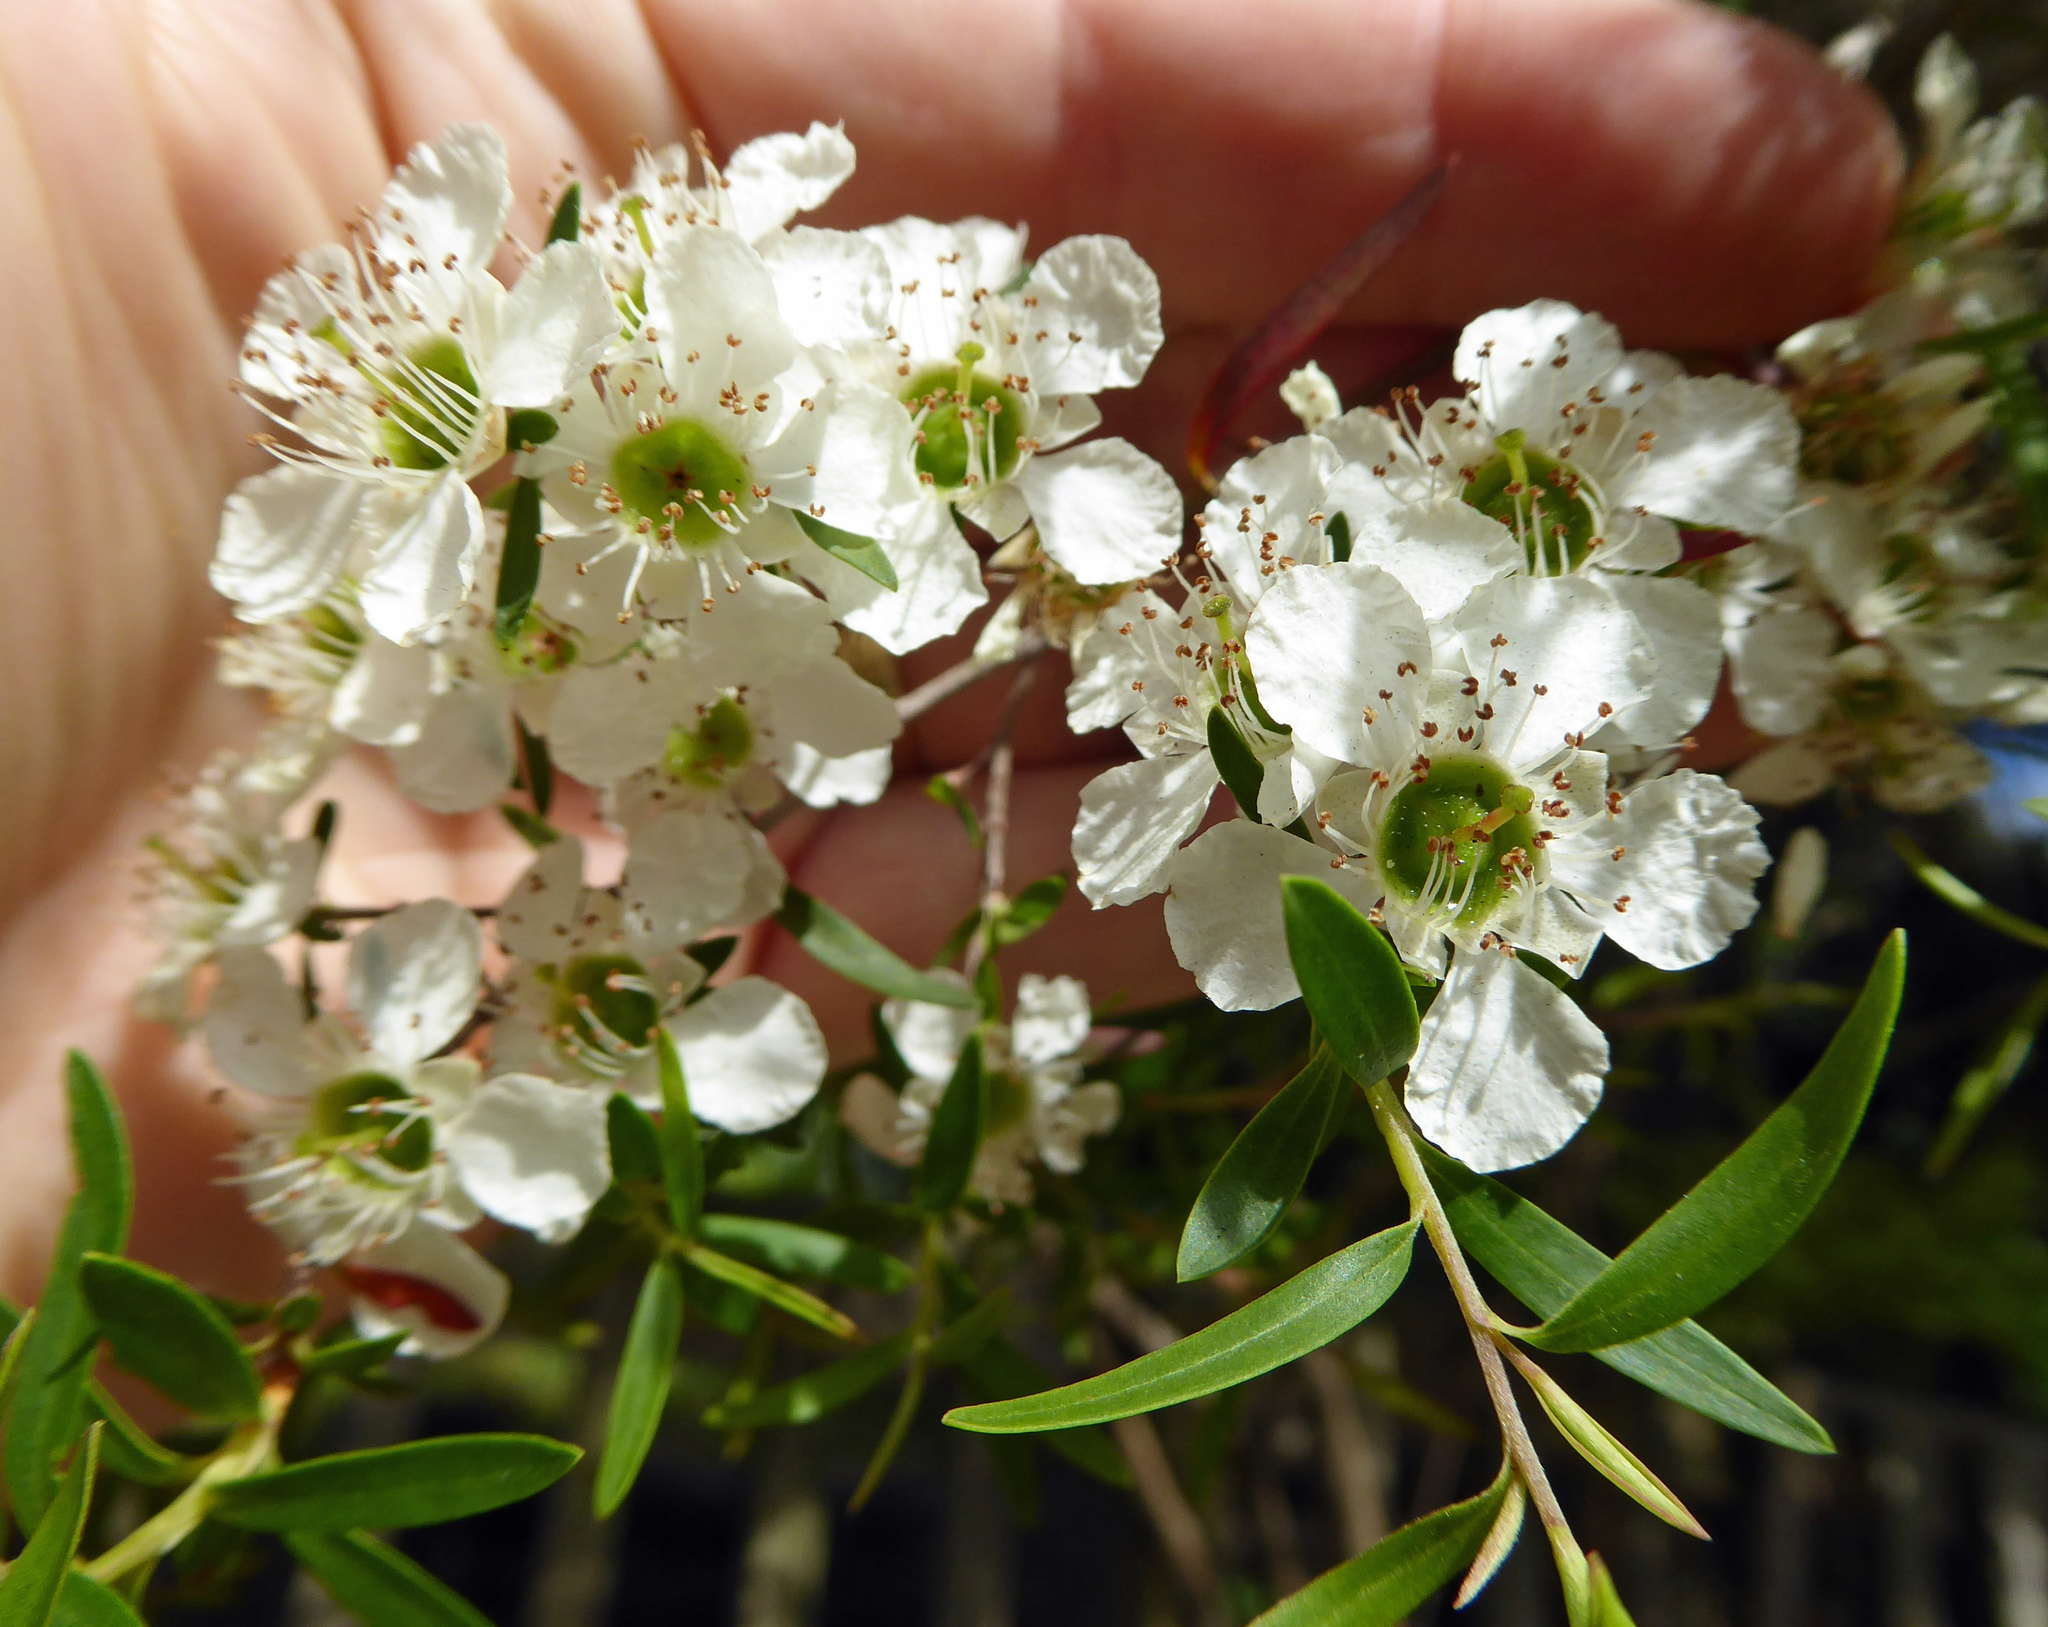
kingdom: Plantae
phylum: Tracheophyta
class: Magnoliopsida
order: Myrtales
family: Myrtaceae
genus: Leptospermum
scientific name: Leptospermum polygalifolium
